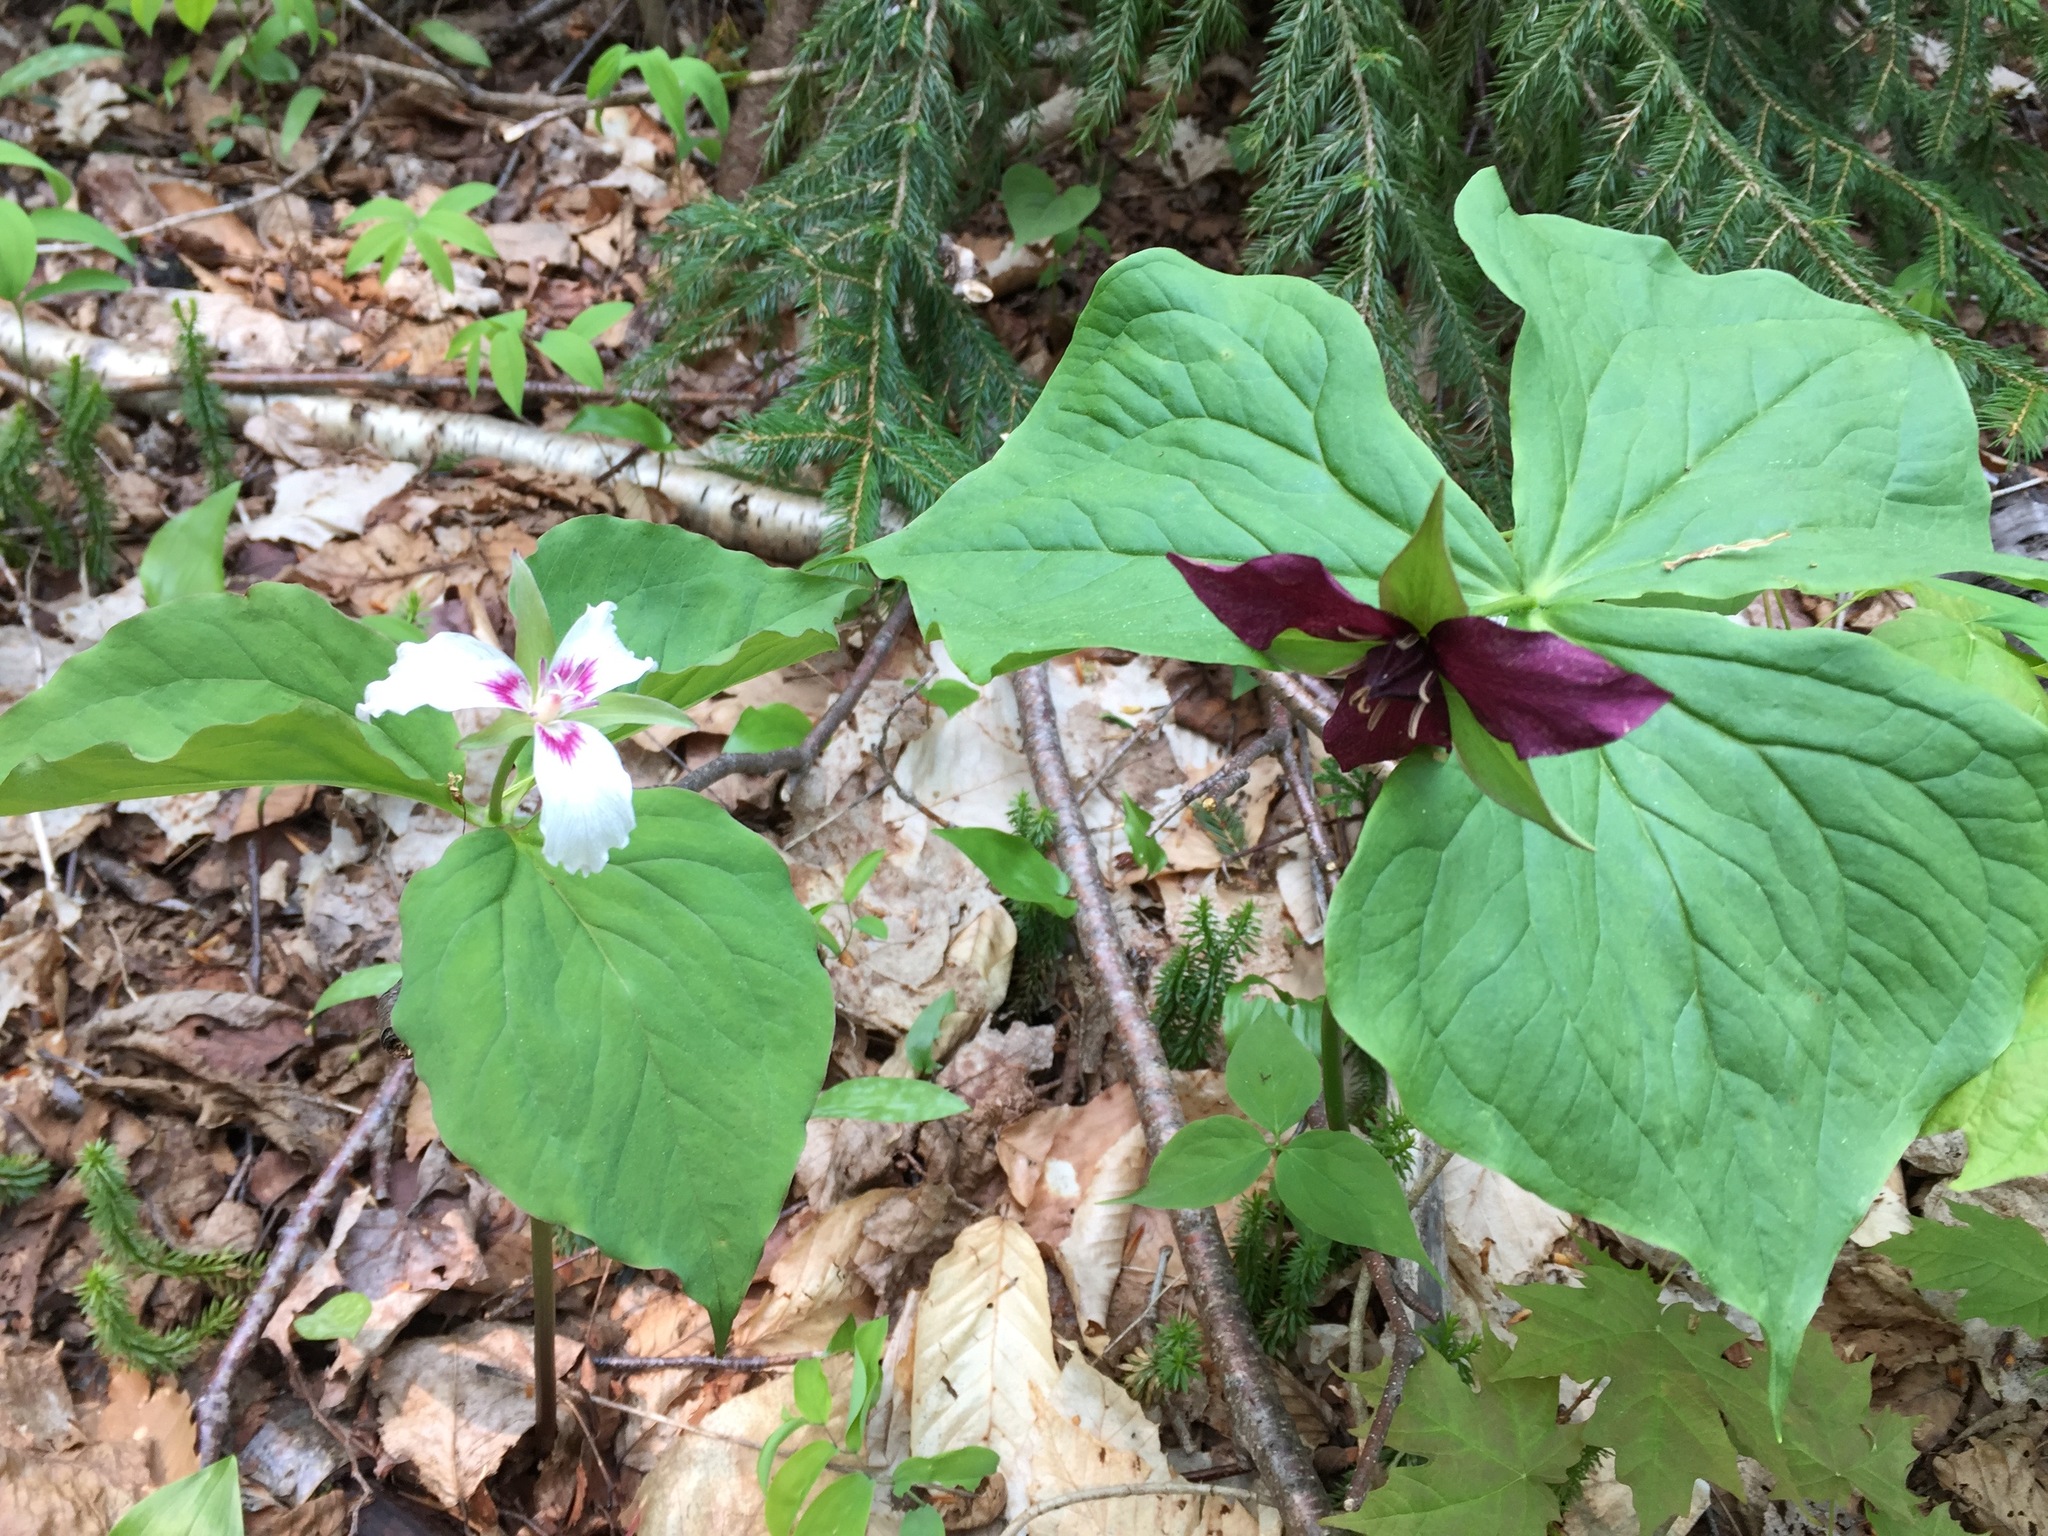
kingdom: Plantae
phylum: Tracheophyta
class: Liliopsida
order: Liliales
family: Melanthiaceae
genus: Trillium
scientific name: Trillium undulatum
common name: Paint trillium
